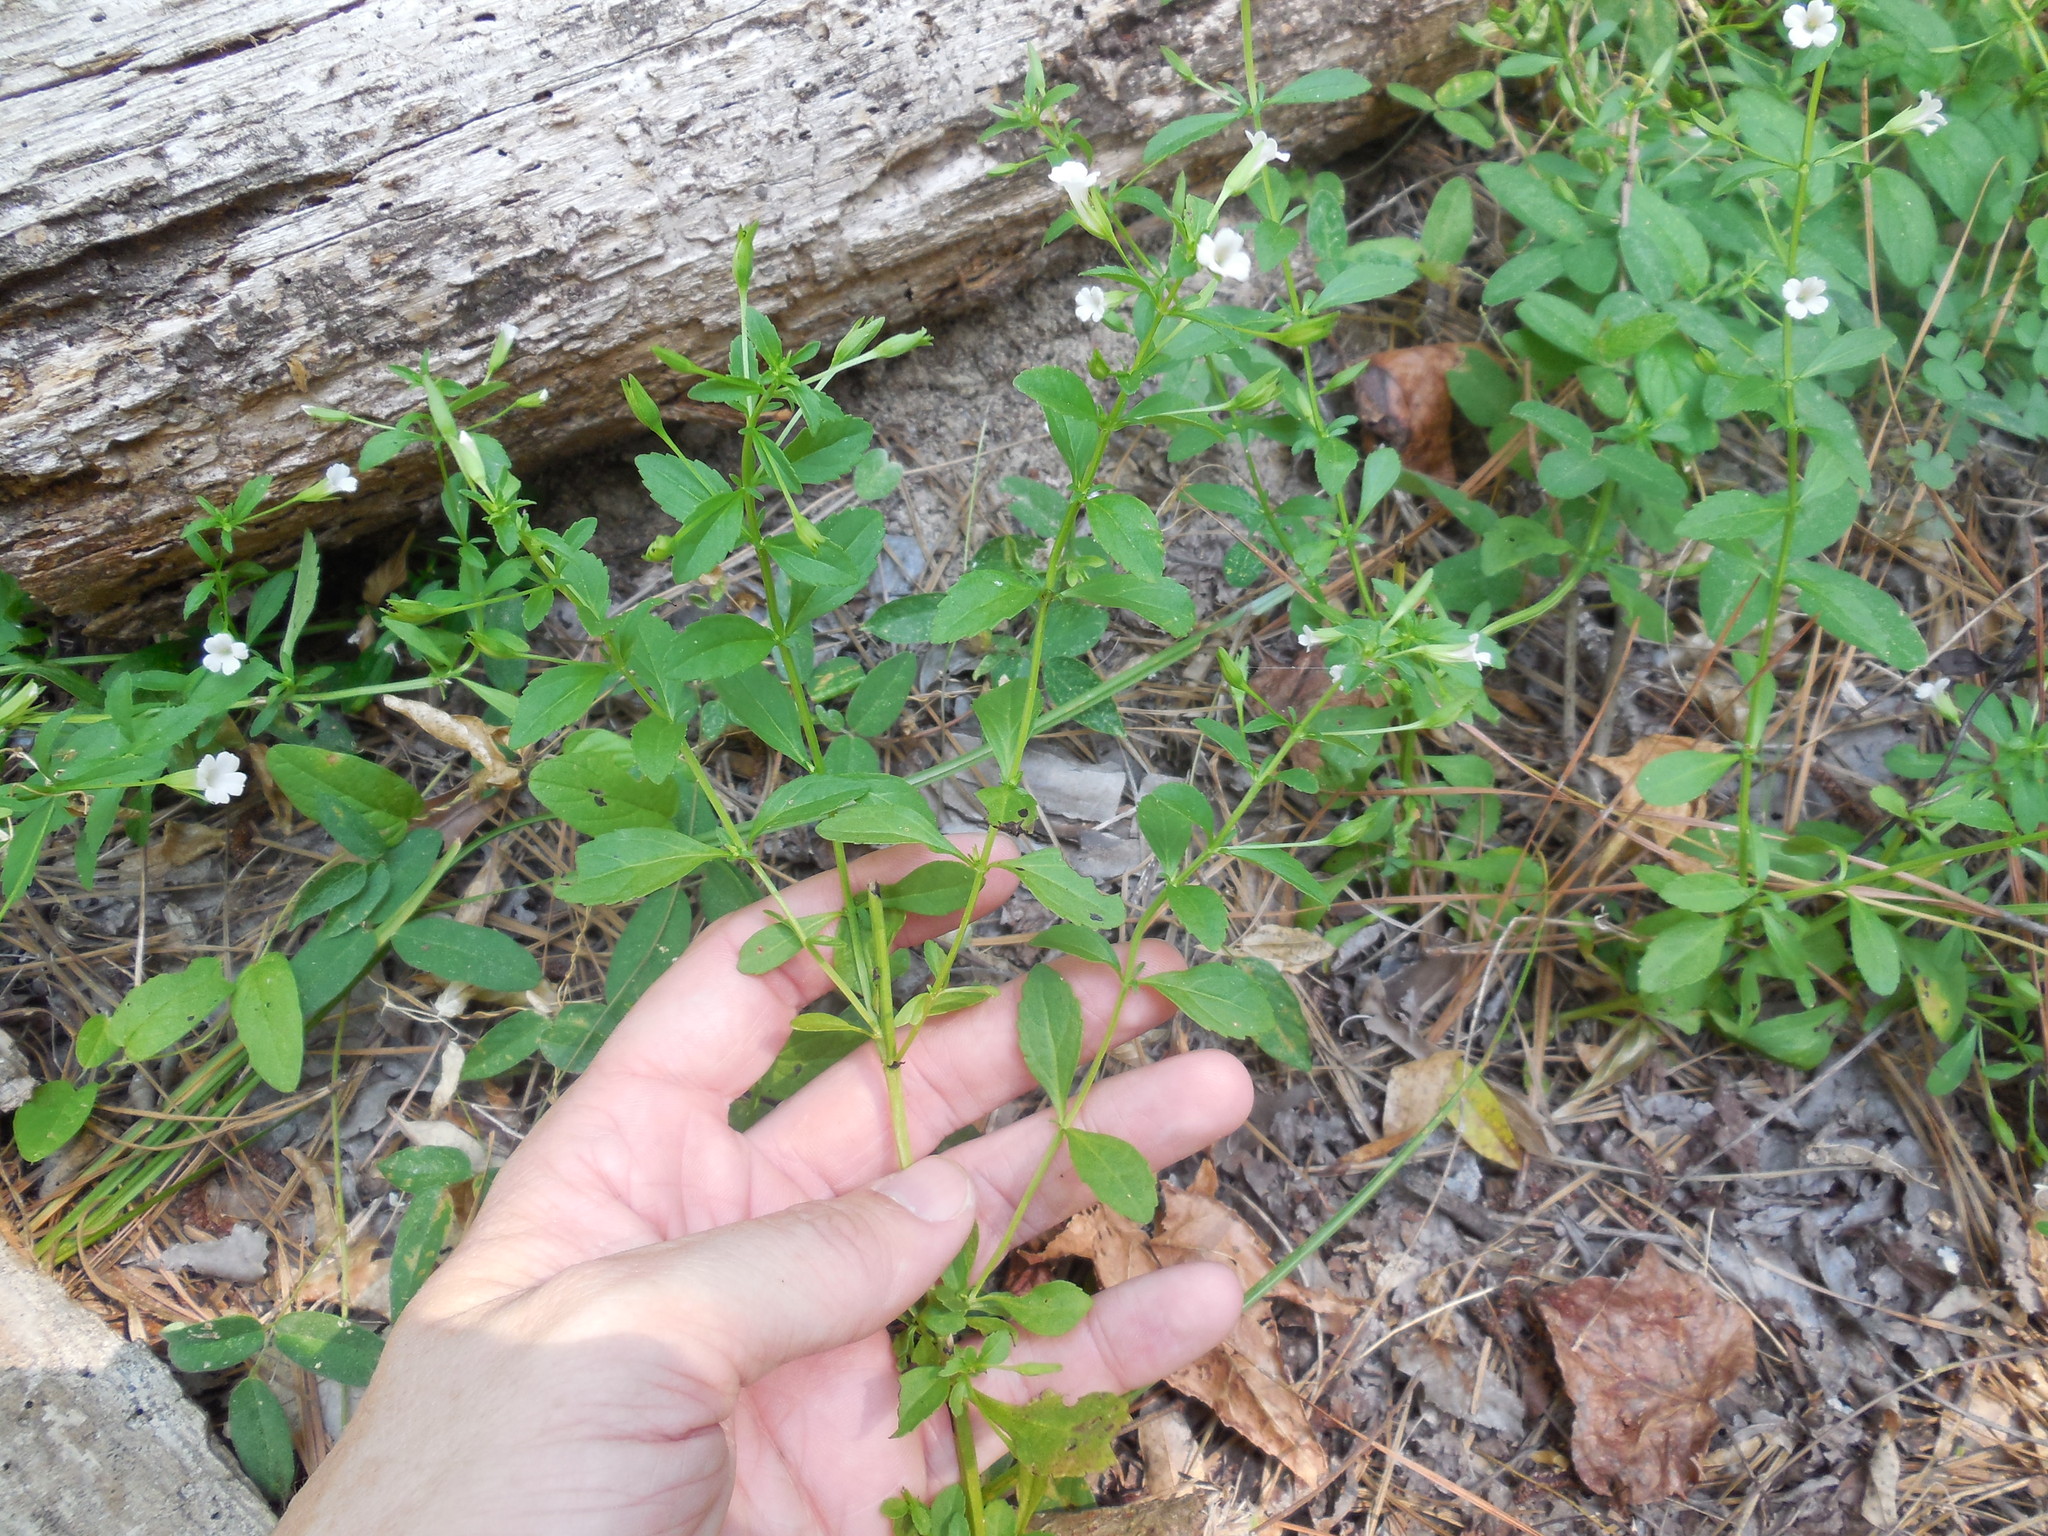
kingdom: Plantae
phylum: Tracheophyta
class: Magnoliopsida
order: Lamiales
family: Plantaginaceae
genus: Mecardonia
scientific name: Mecardonia acuminata
